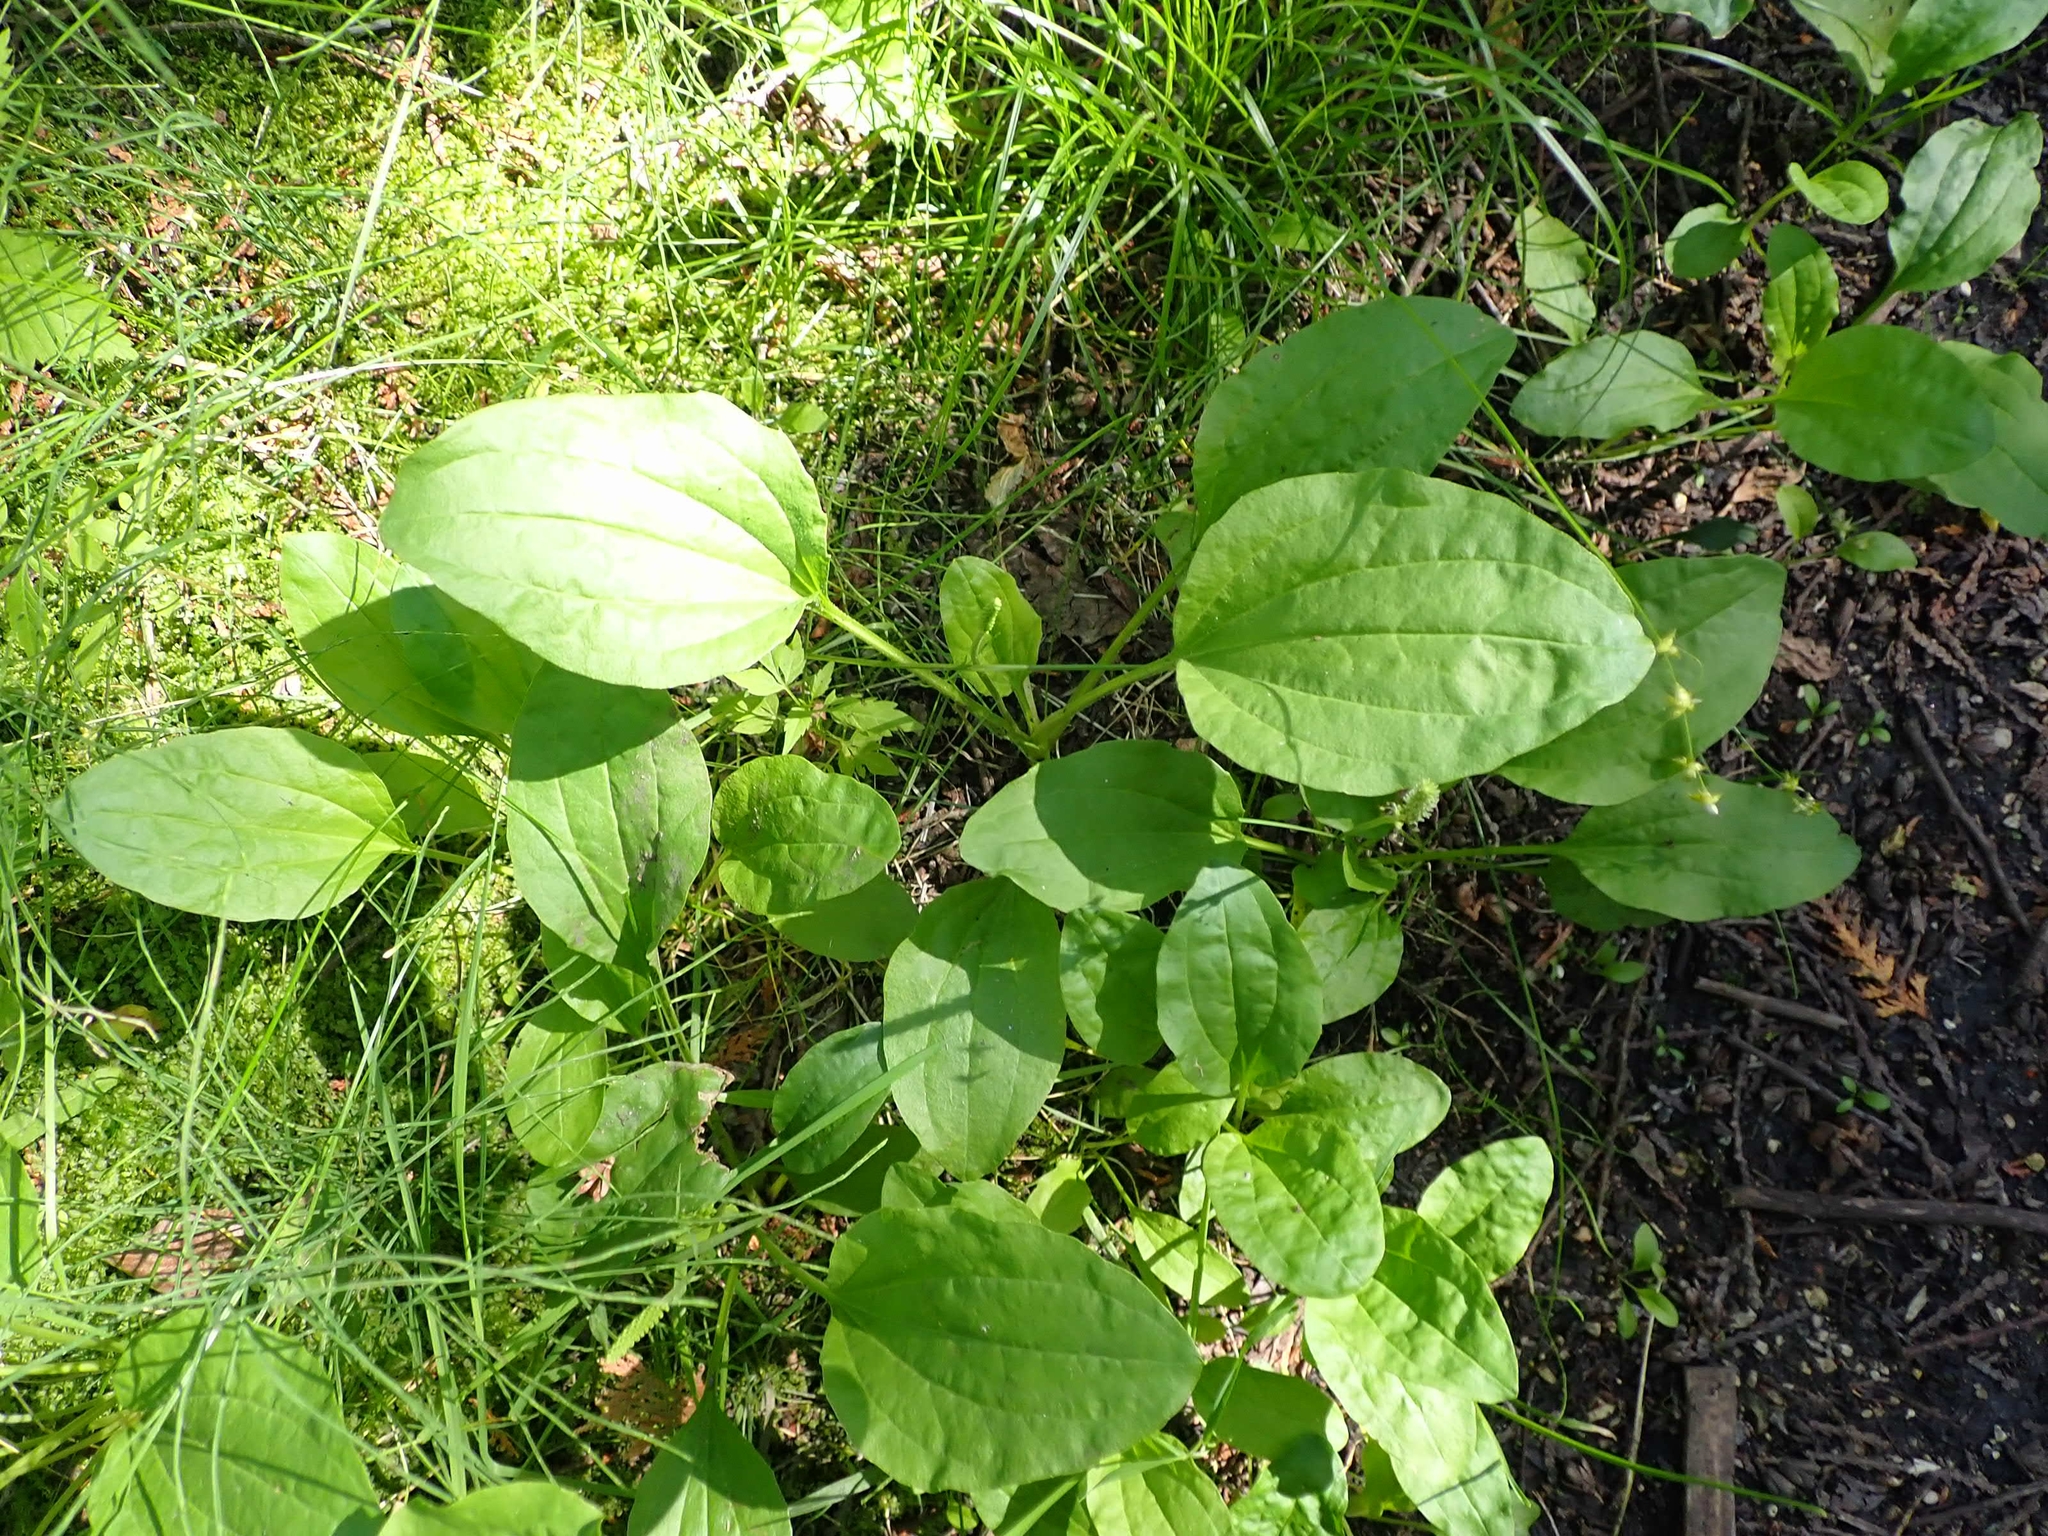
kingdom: Plantae
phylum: Tracheophyta
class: Magnoliopsida
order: Lamiales
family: Plantaginaceae
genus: Plantago
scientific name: Plantago major
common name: Common plantain
